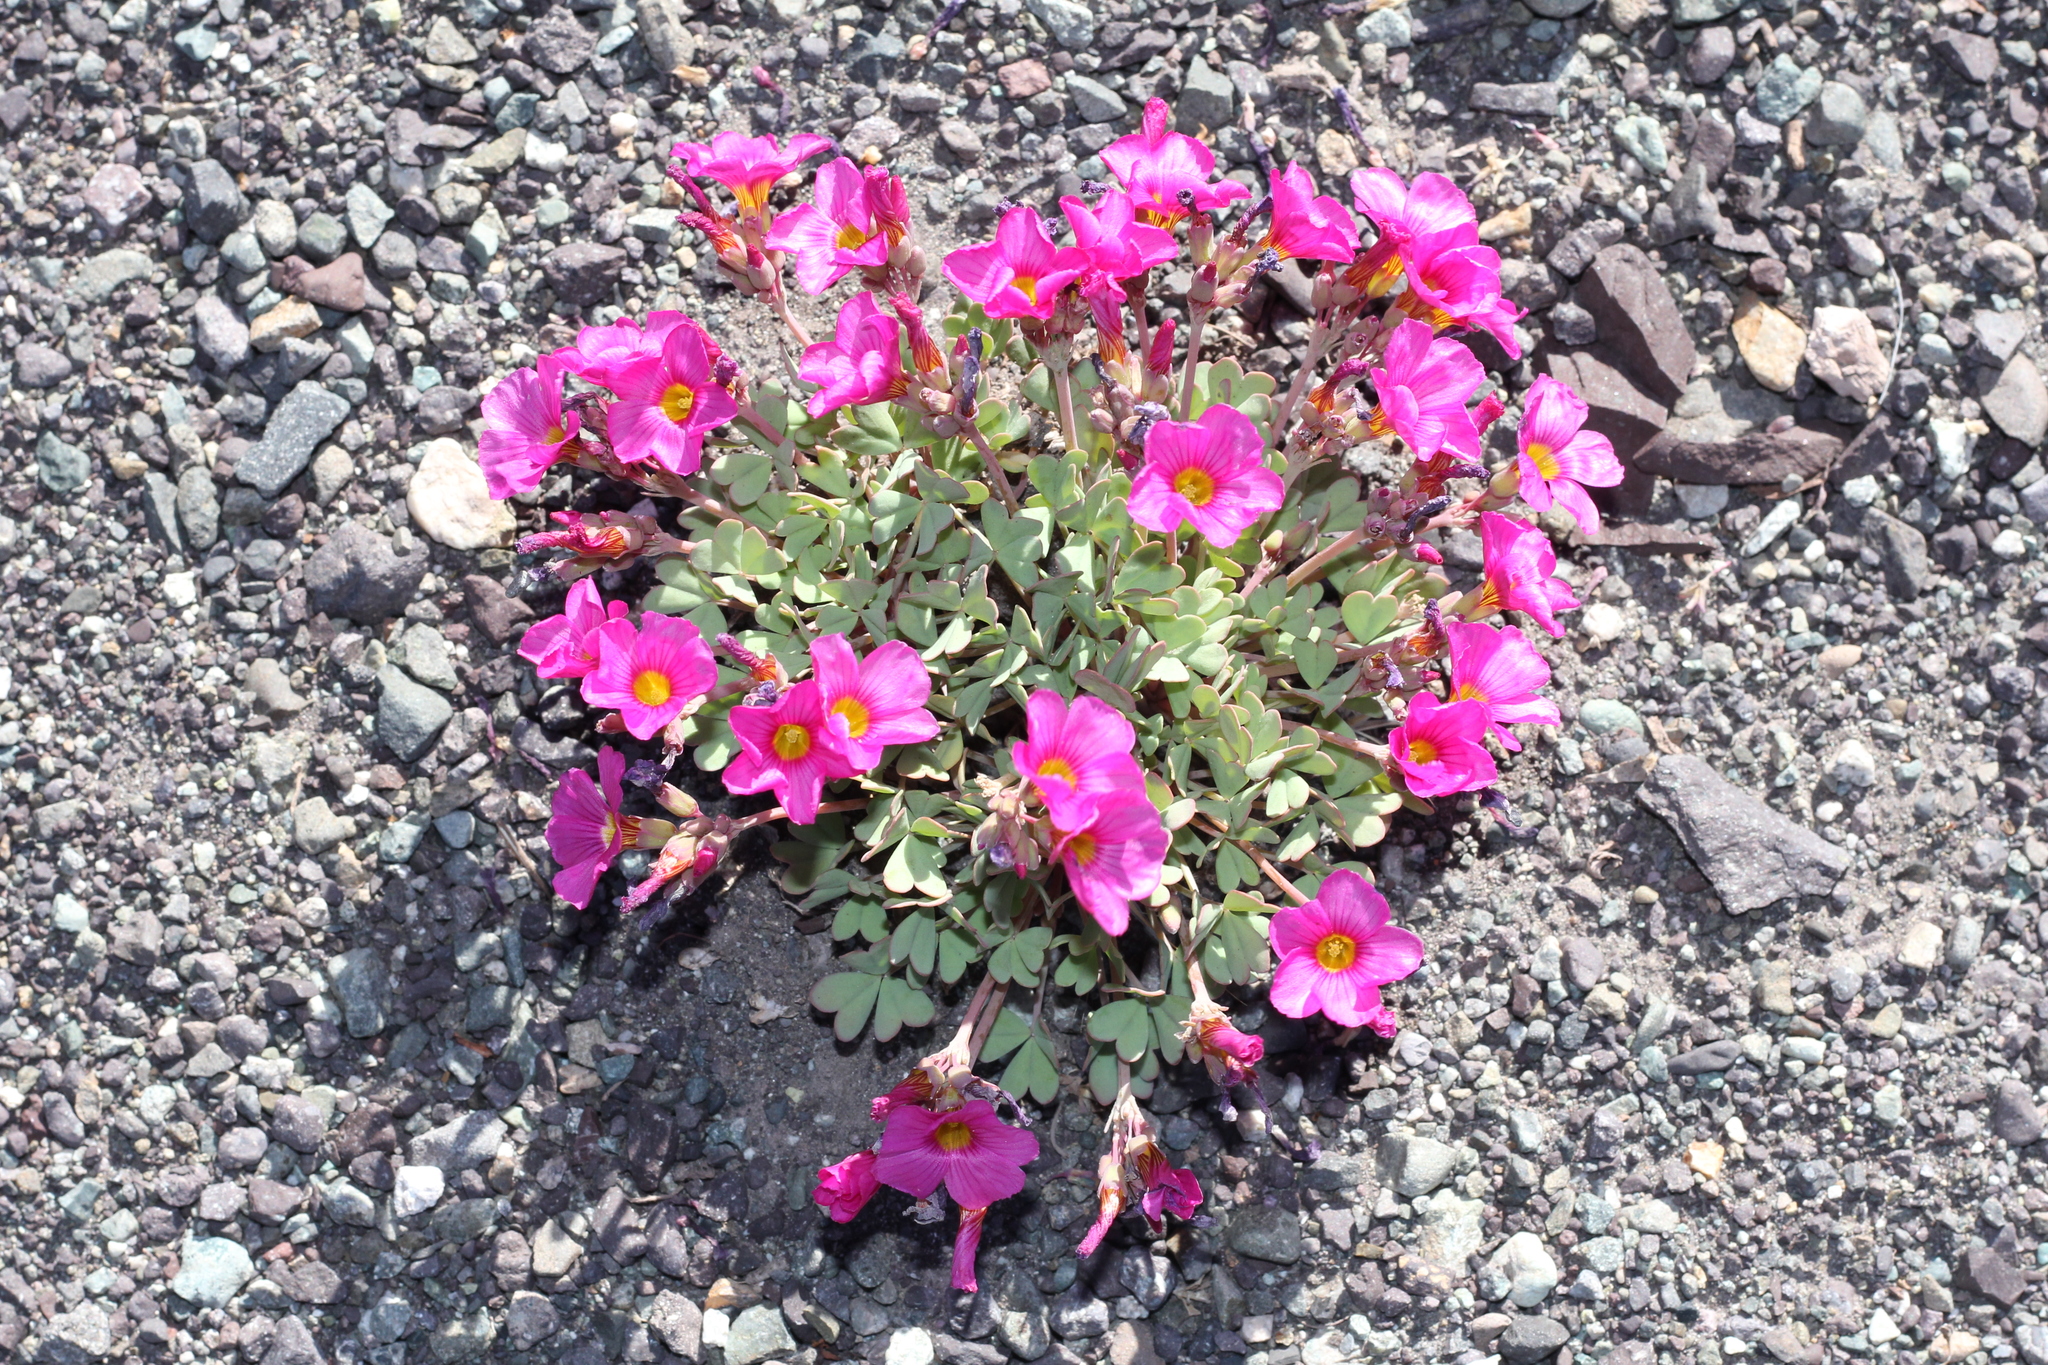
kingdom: Plantae
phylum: Tracheophyta
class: Magnoliopsida
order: Oxalidales
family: Oxalidaceae
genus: Oxalis
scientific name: Oxalis squamata
